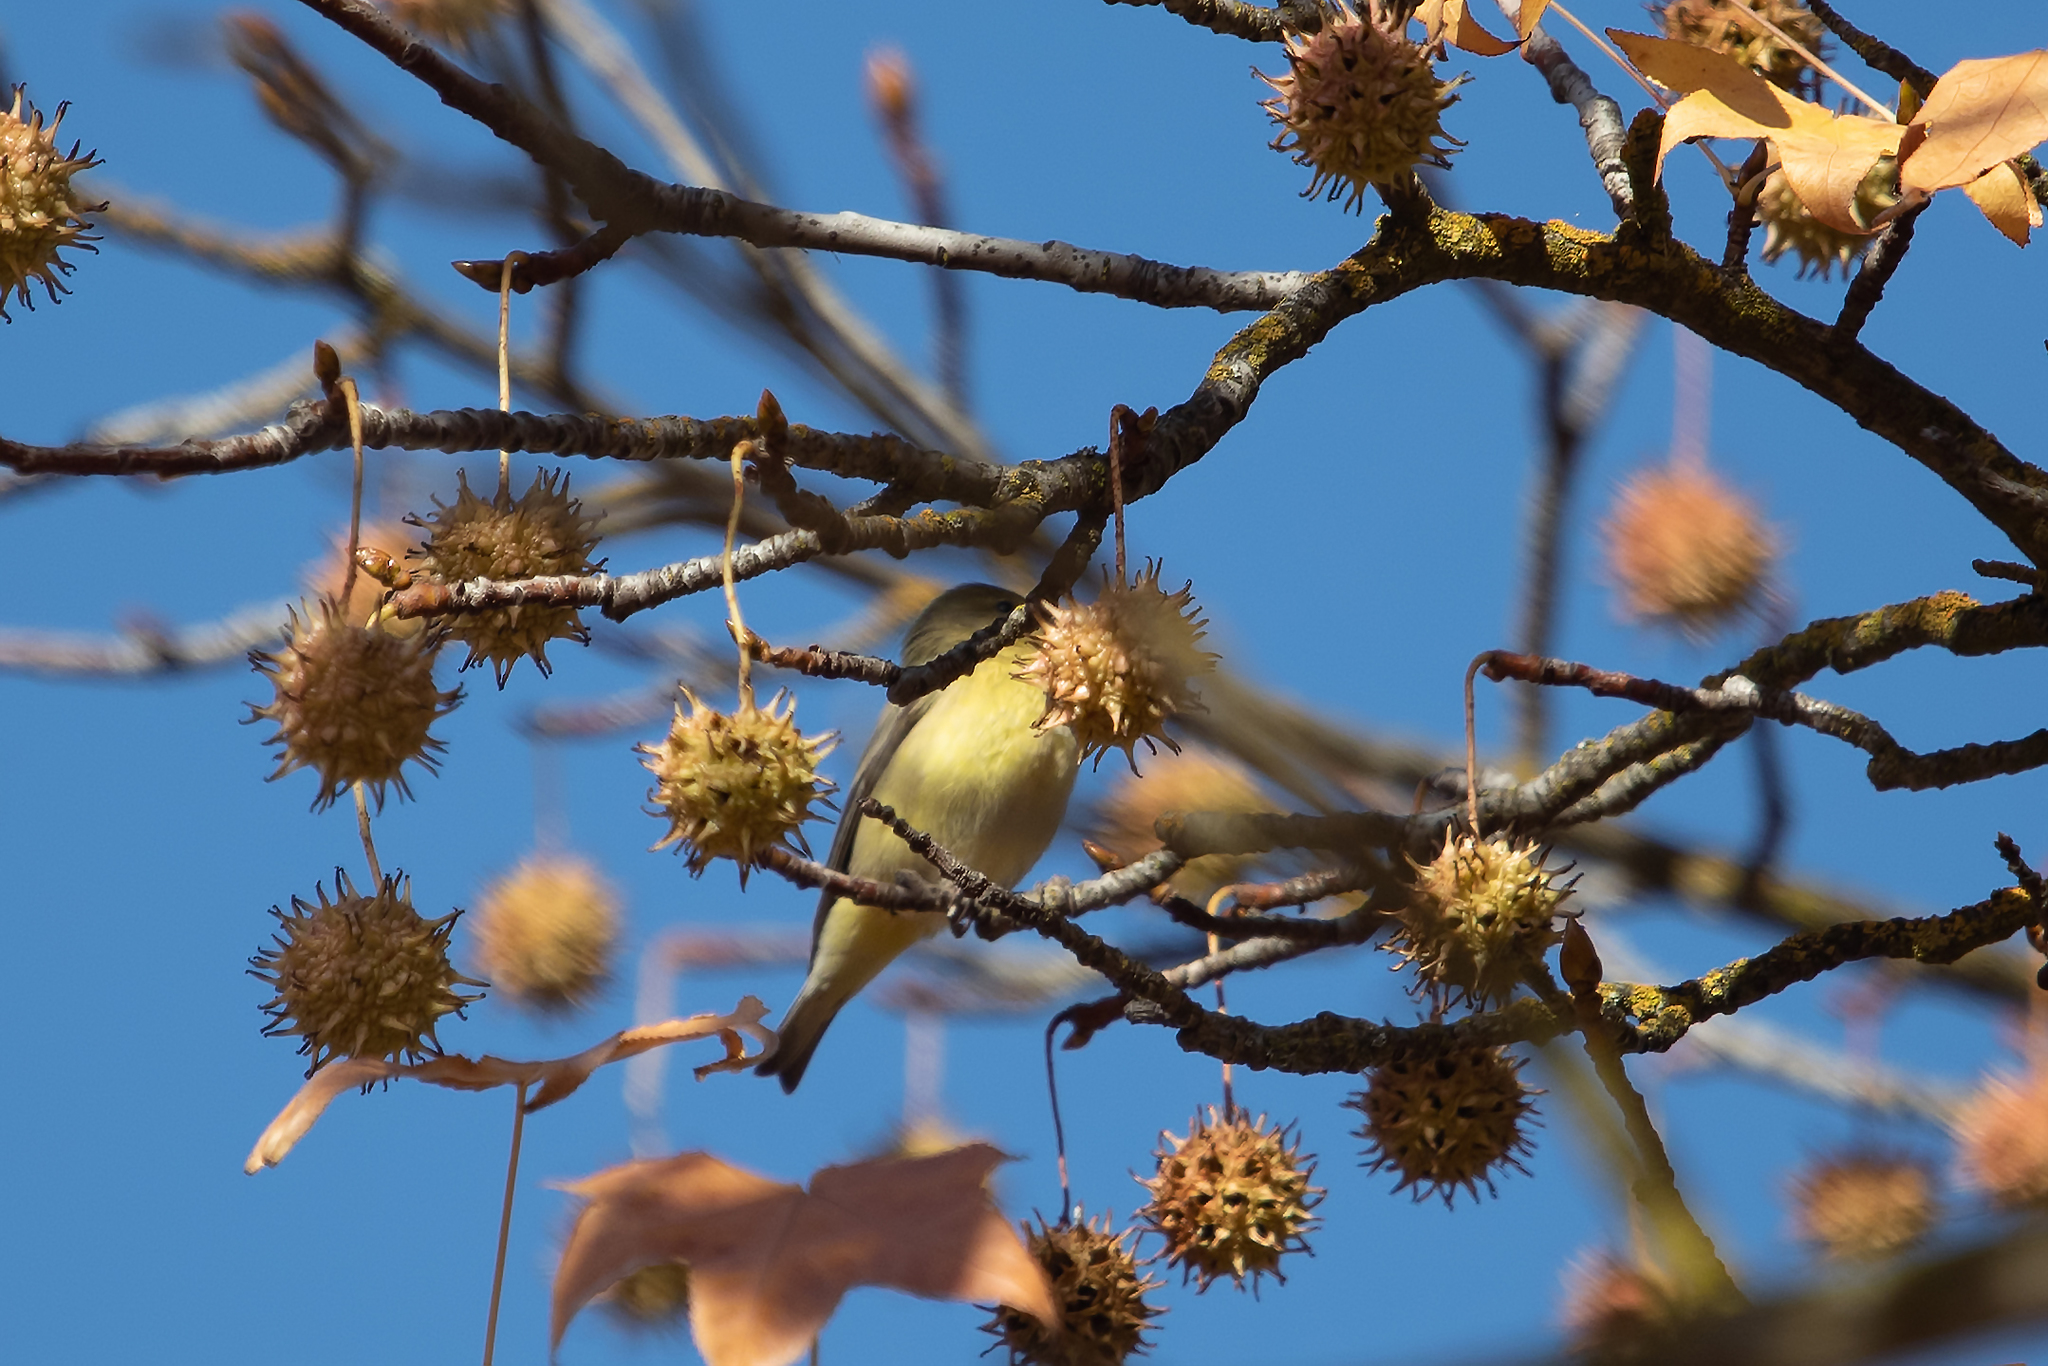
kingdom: Animalia
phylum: Chordata
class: Aves
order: Passeriformes
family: Fringillidae
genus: Spinus
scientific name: Spinus psaltria
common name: Lesser goldfinch
